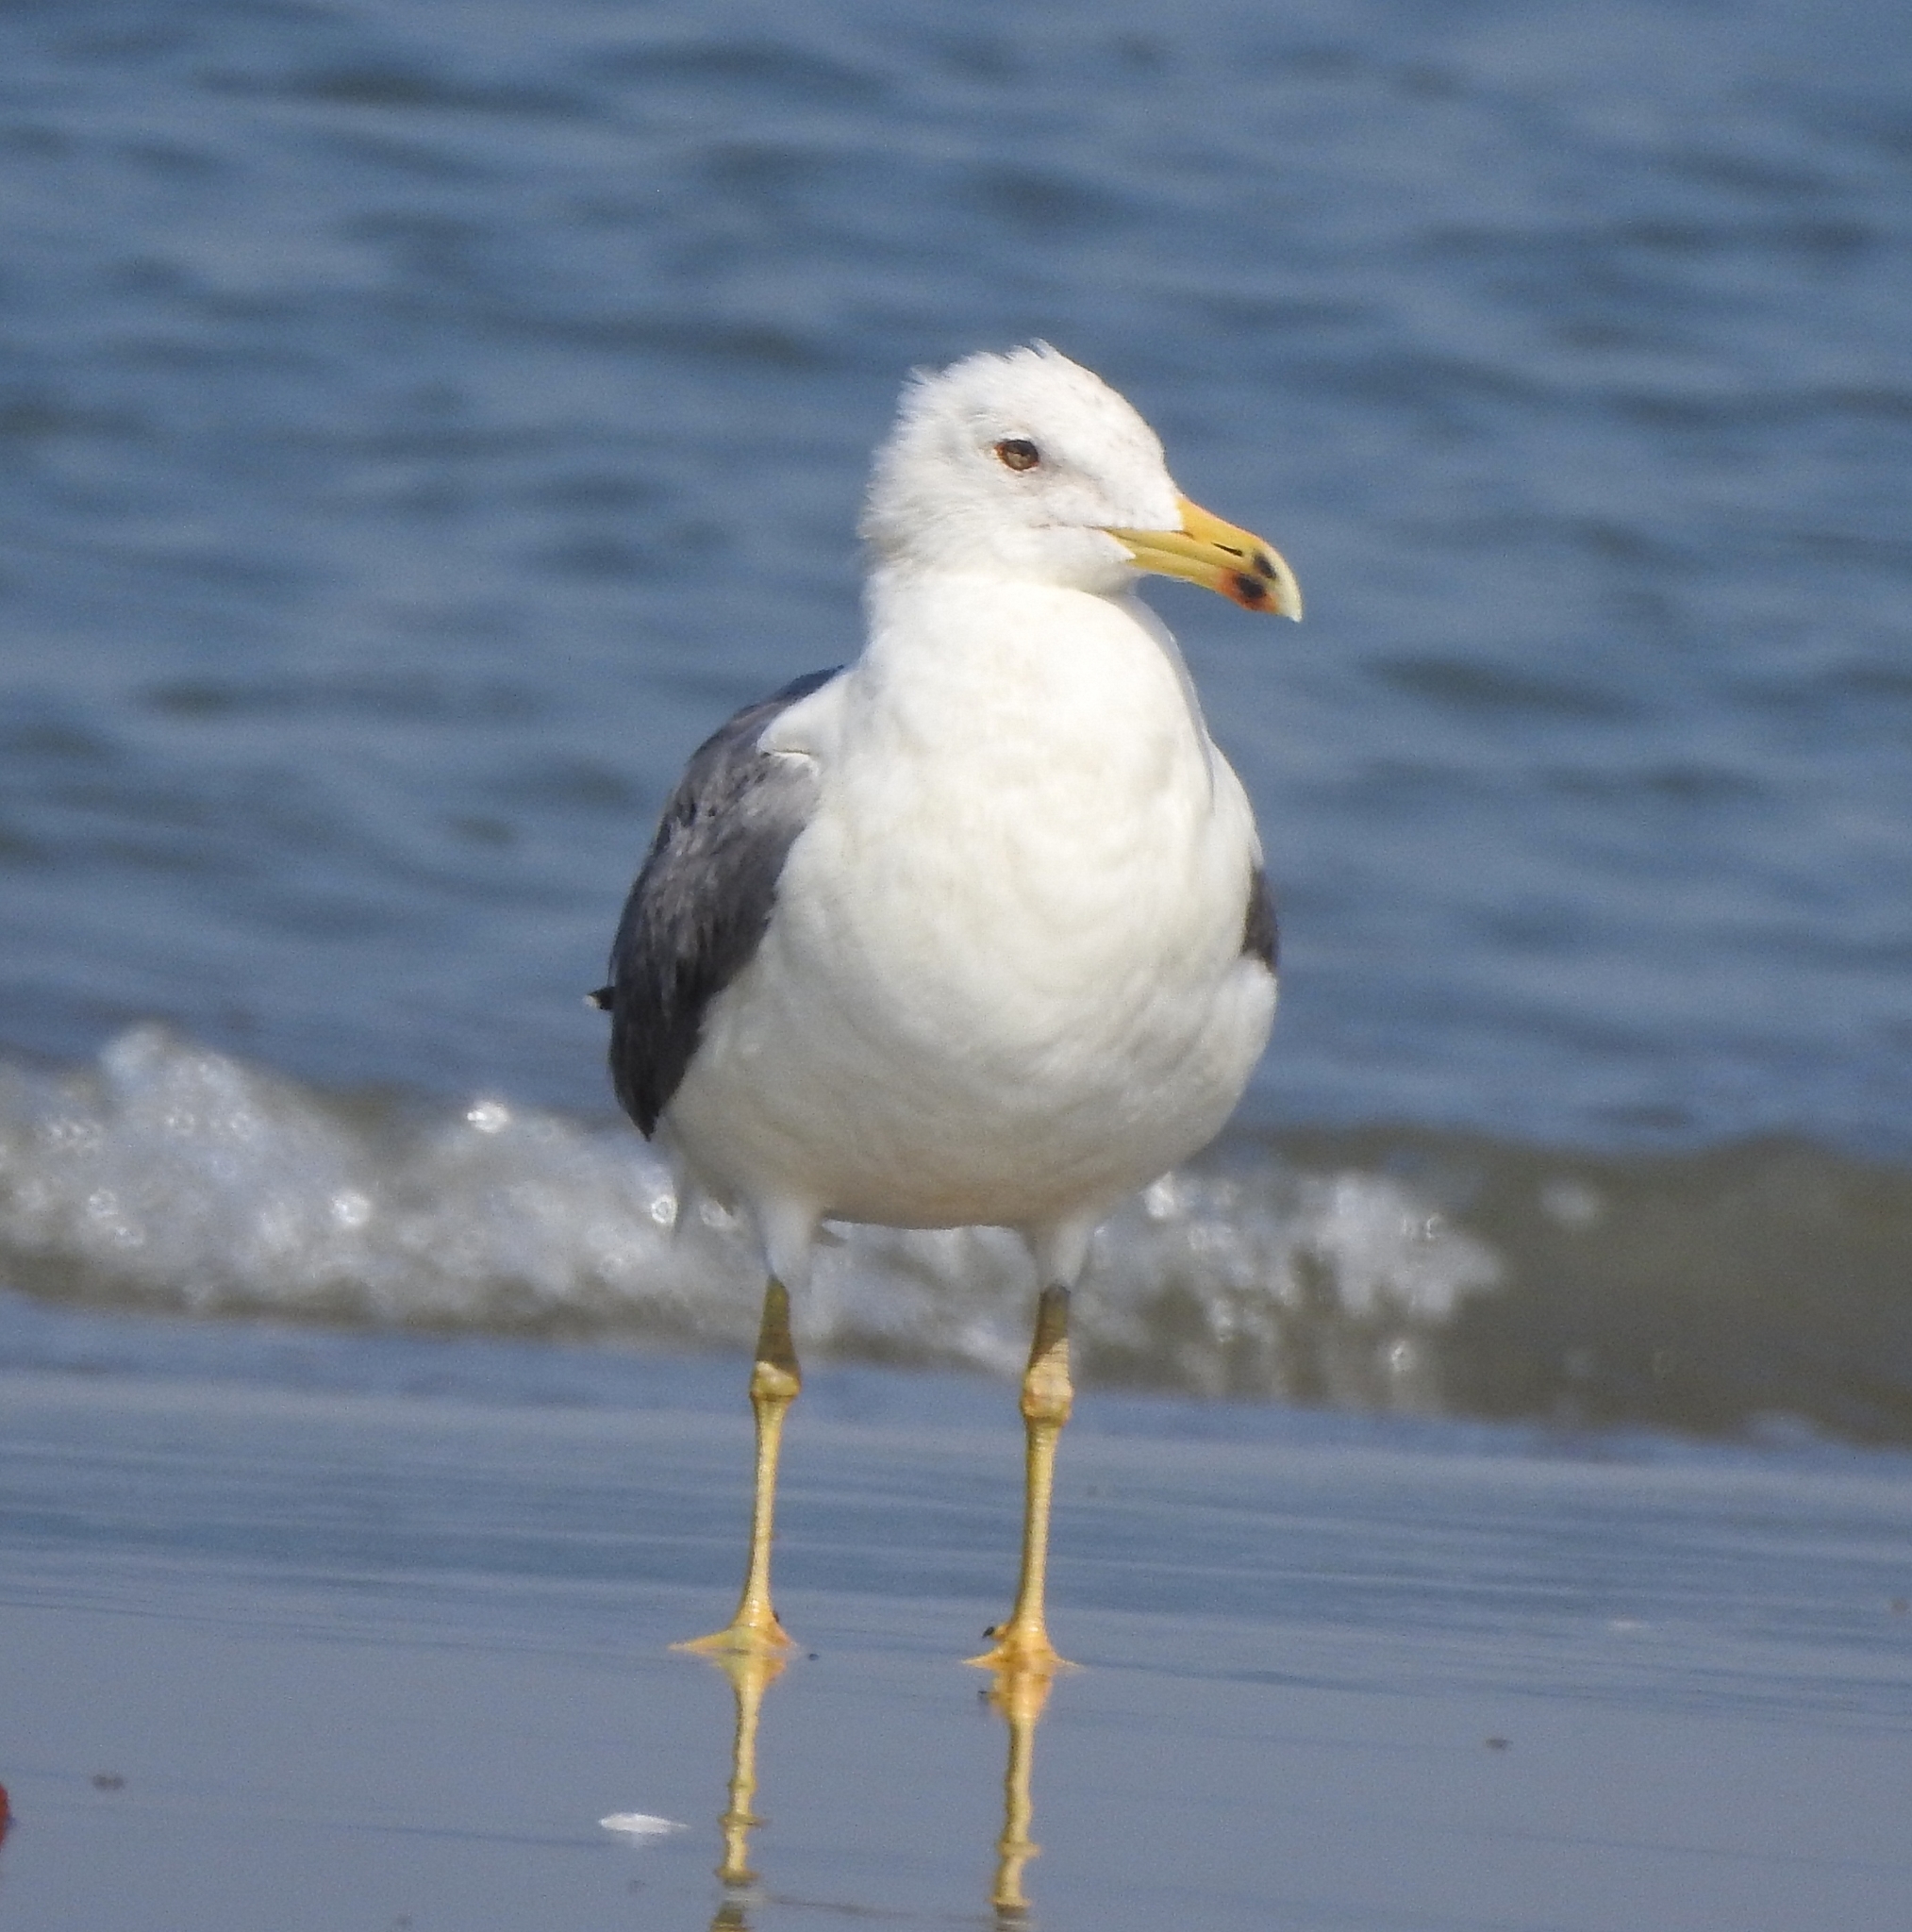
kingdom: Animalia
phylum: Chordata
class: Aves
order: Charadriiformes
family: Laridae
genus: Larus
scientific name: Larus fuscus
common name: Lesser black-backed gull
